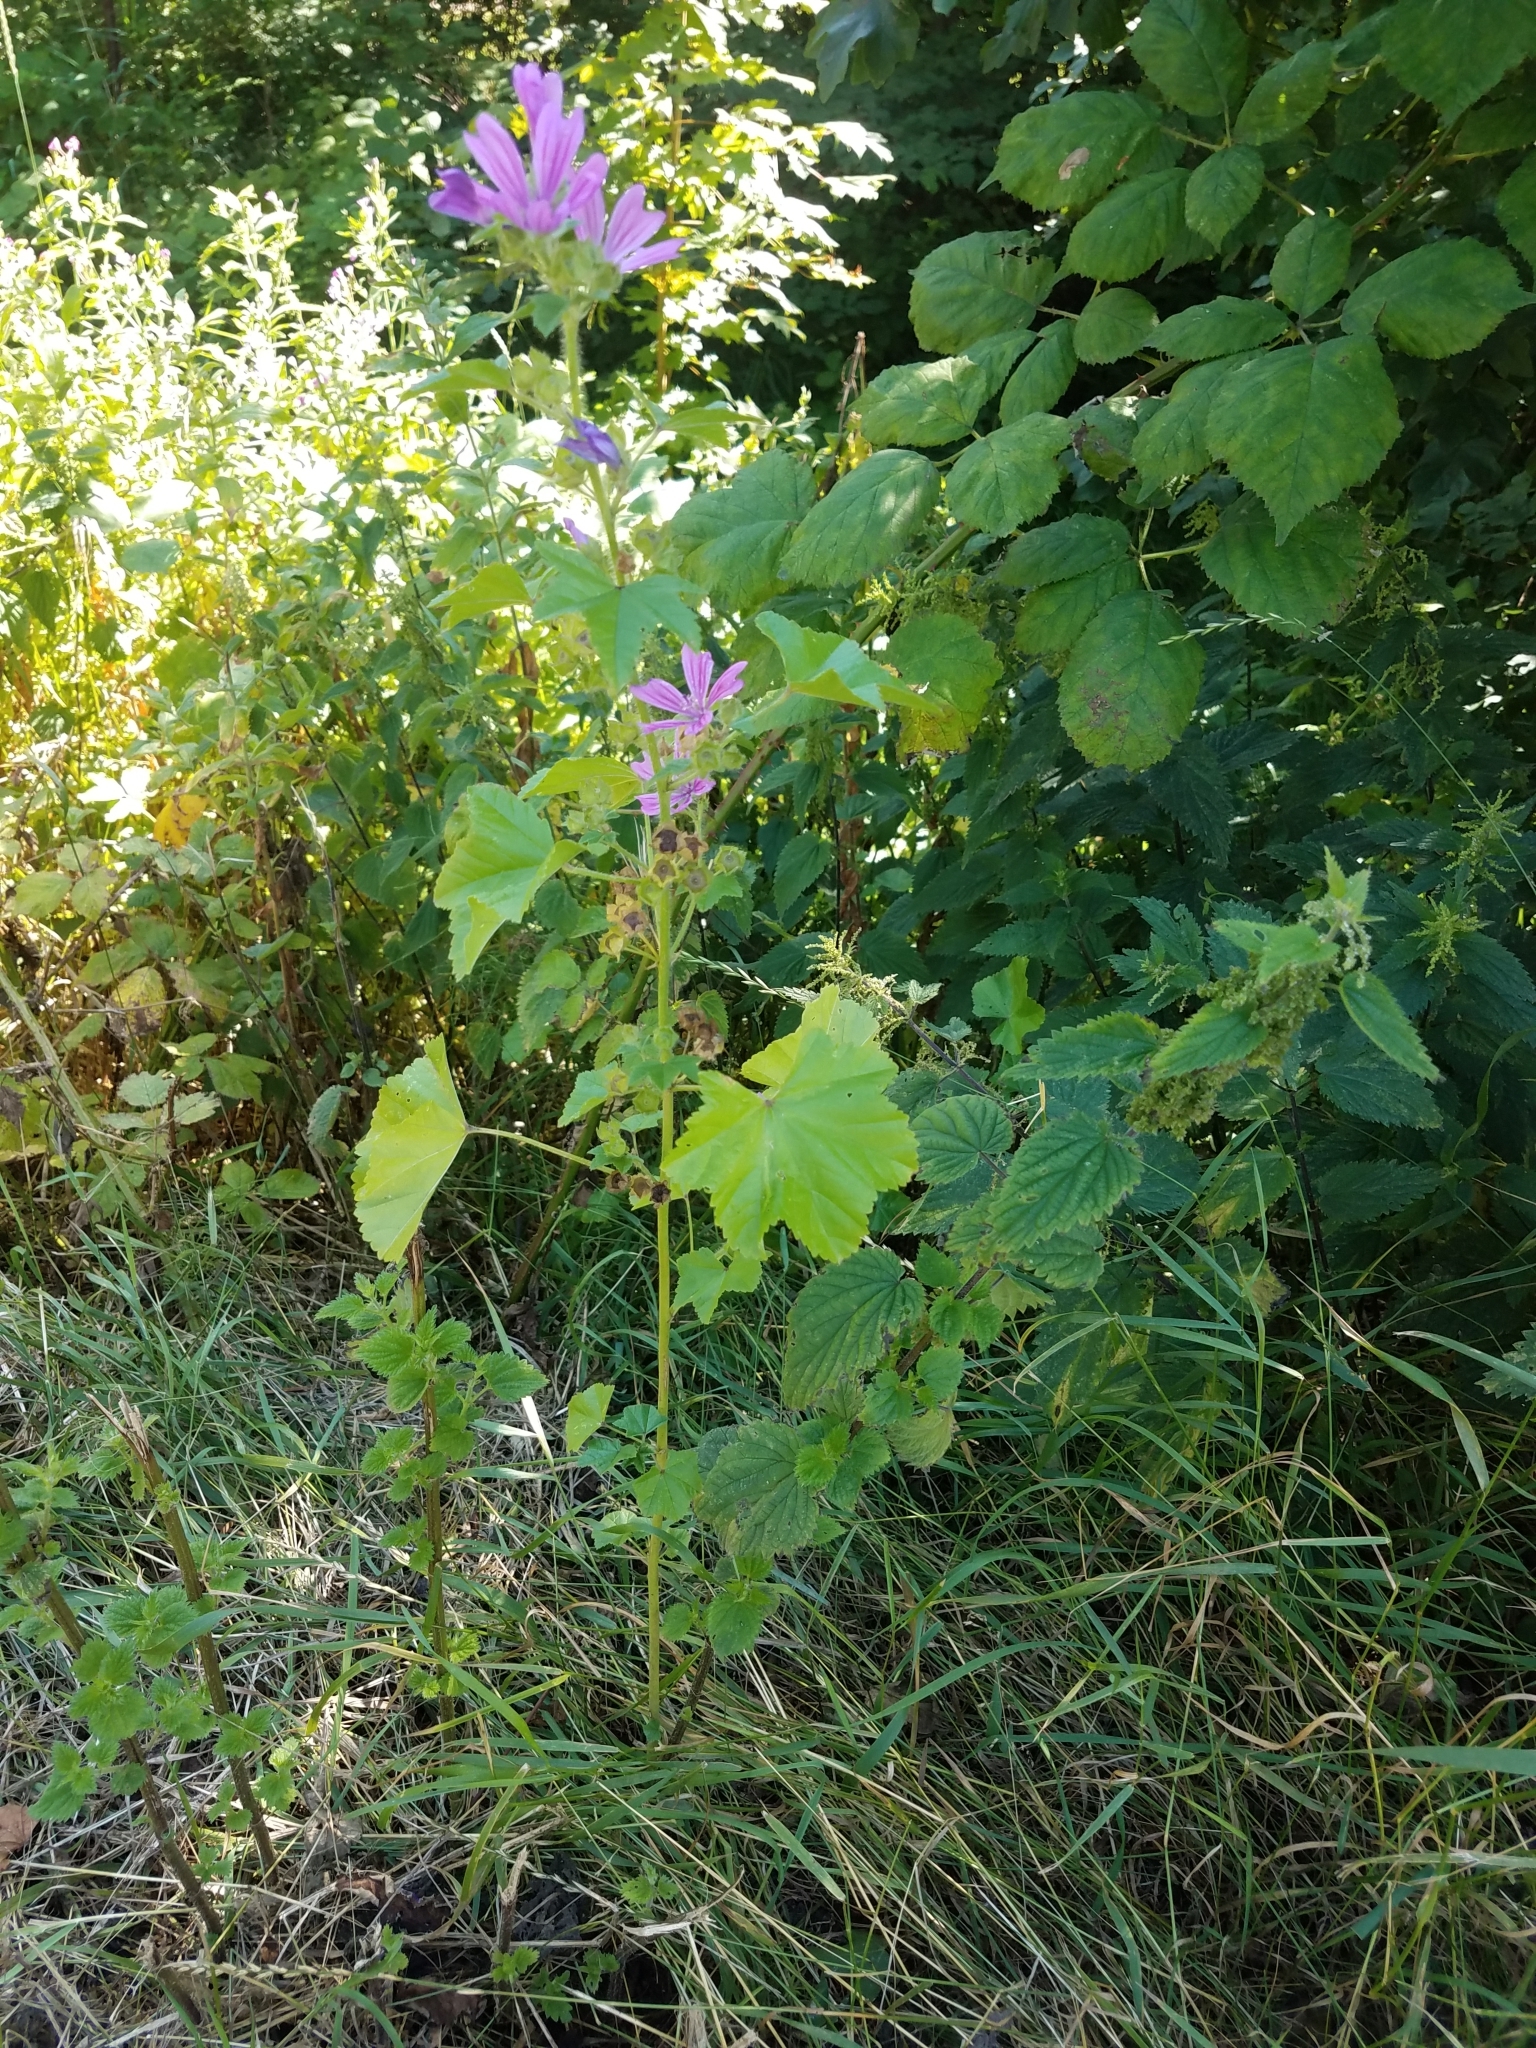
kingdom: Plantae
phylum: Tracheophyta
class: Magnoliopsida
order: Malvales
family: Malvaceae
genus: Malva
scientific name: Malva sylvestris
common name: Common mallow
